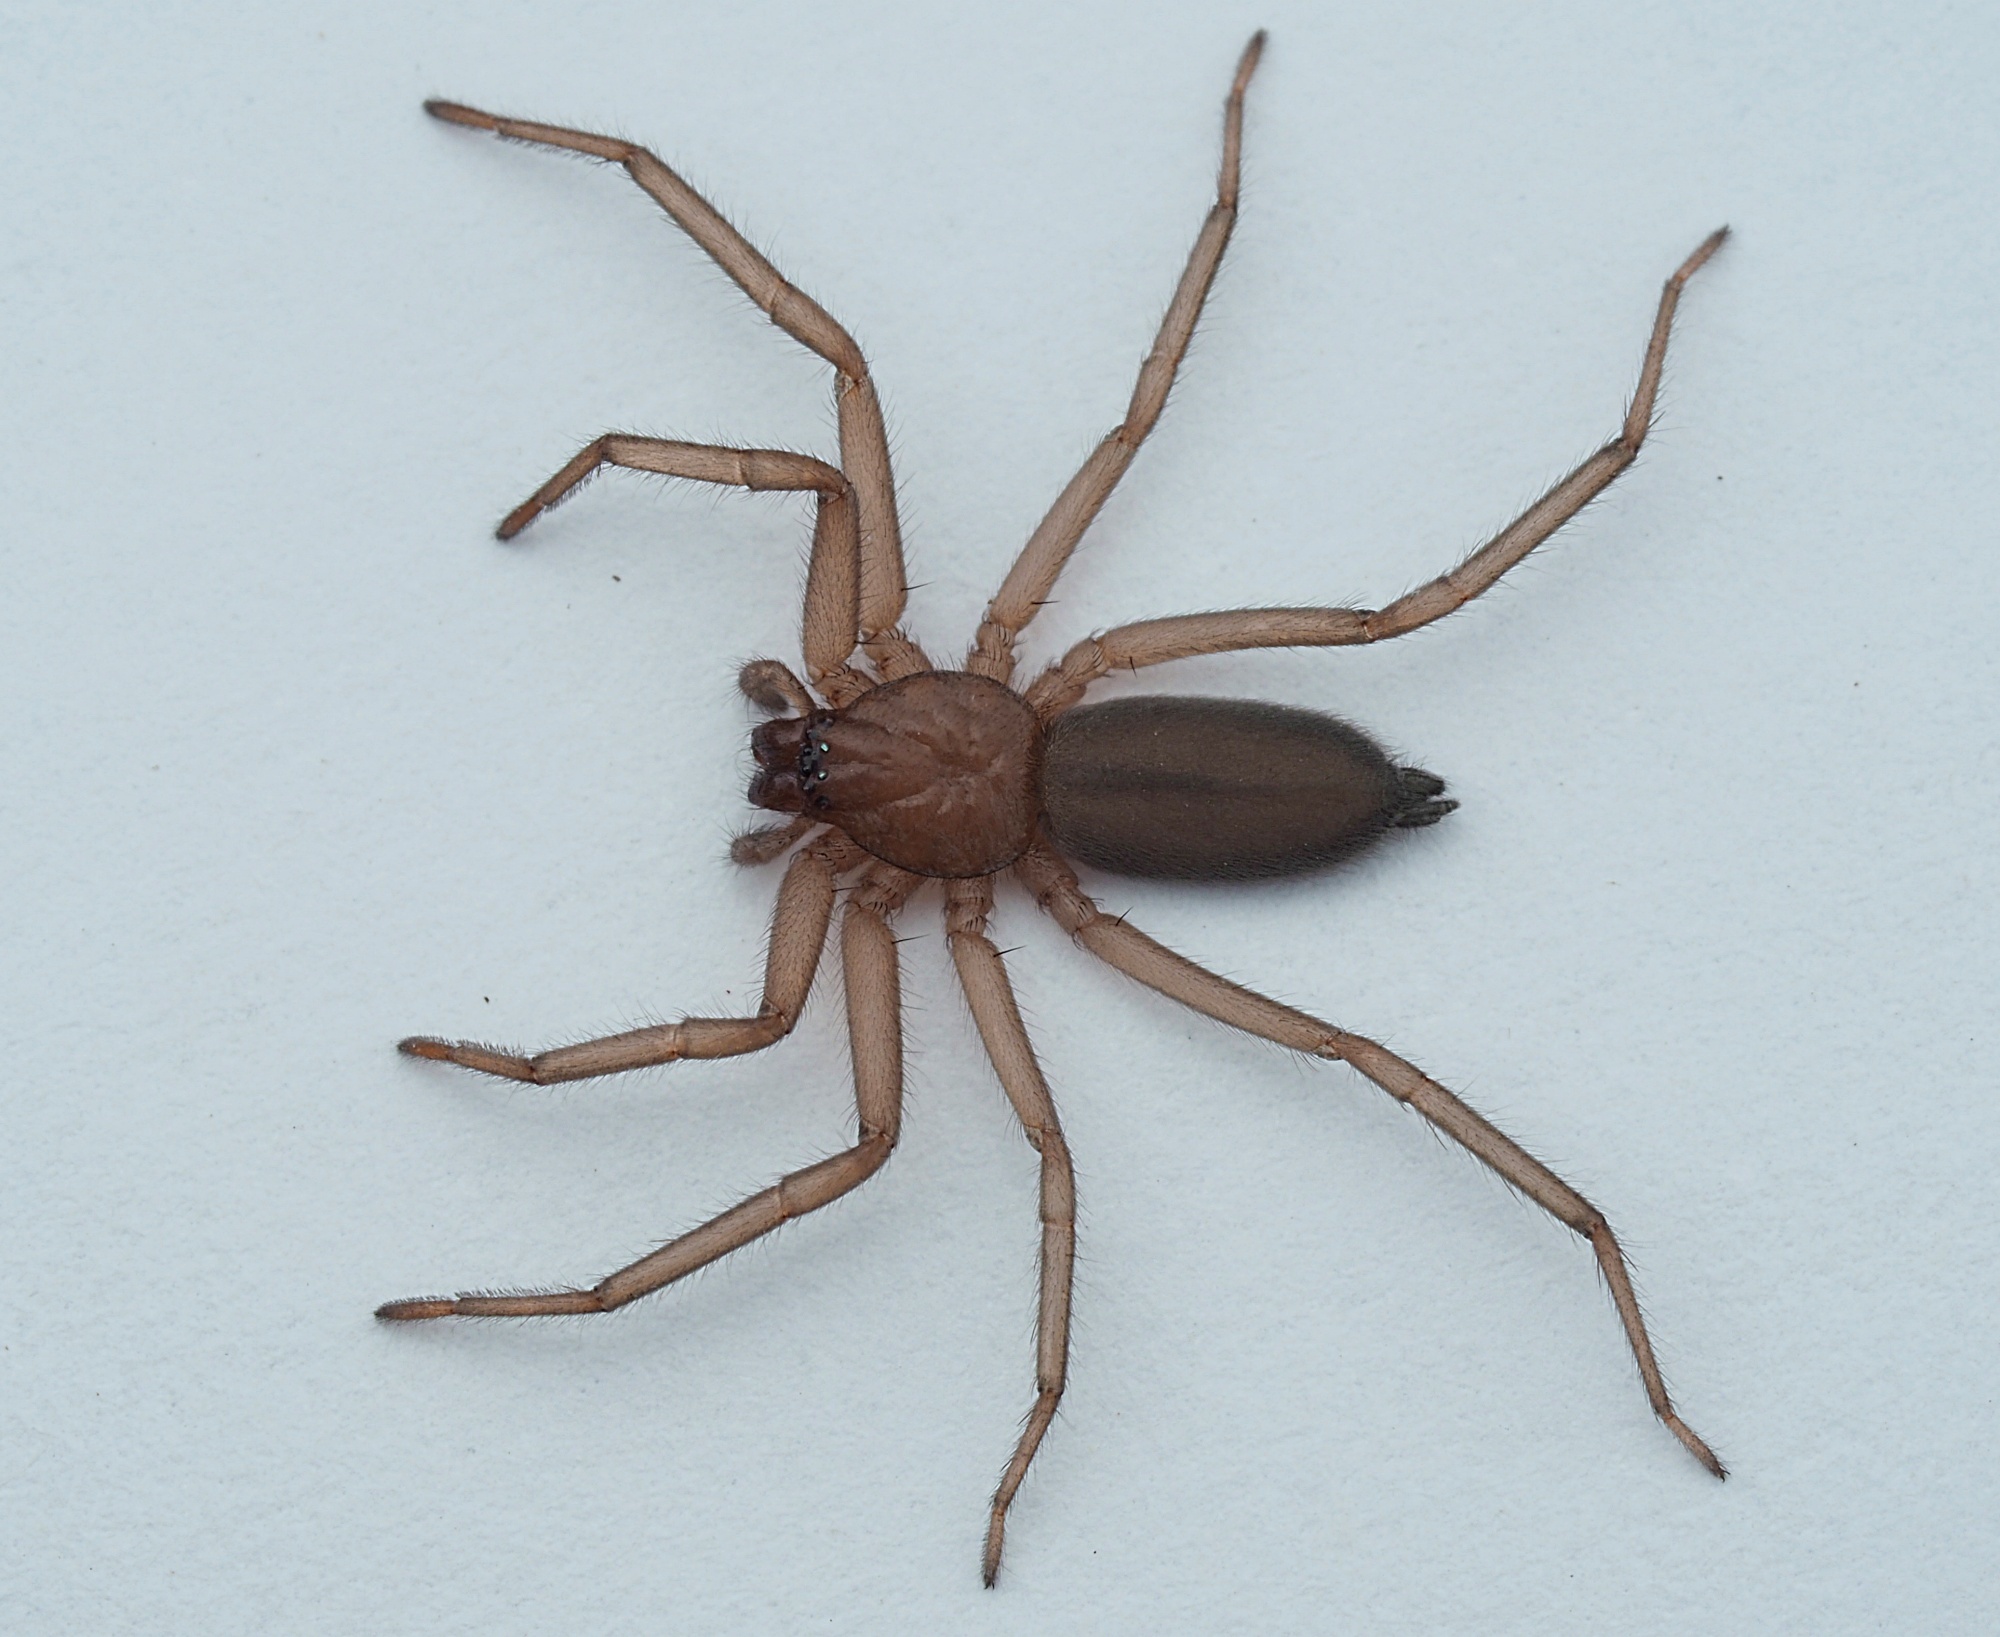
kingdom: Animalia
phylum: Arthropoda
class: Arachnida
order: Araneae
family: Trochanteriidae
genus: Hemicloea
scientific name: Hemicloea rogenhoferi
